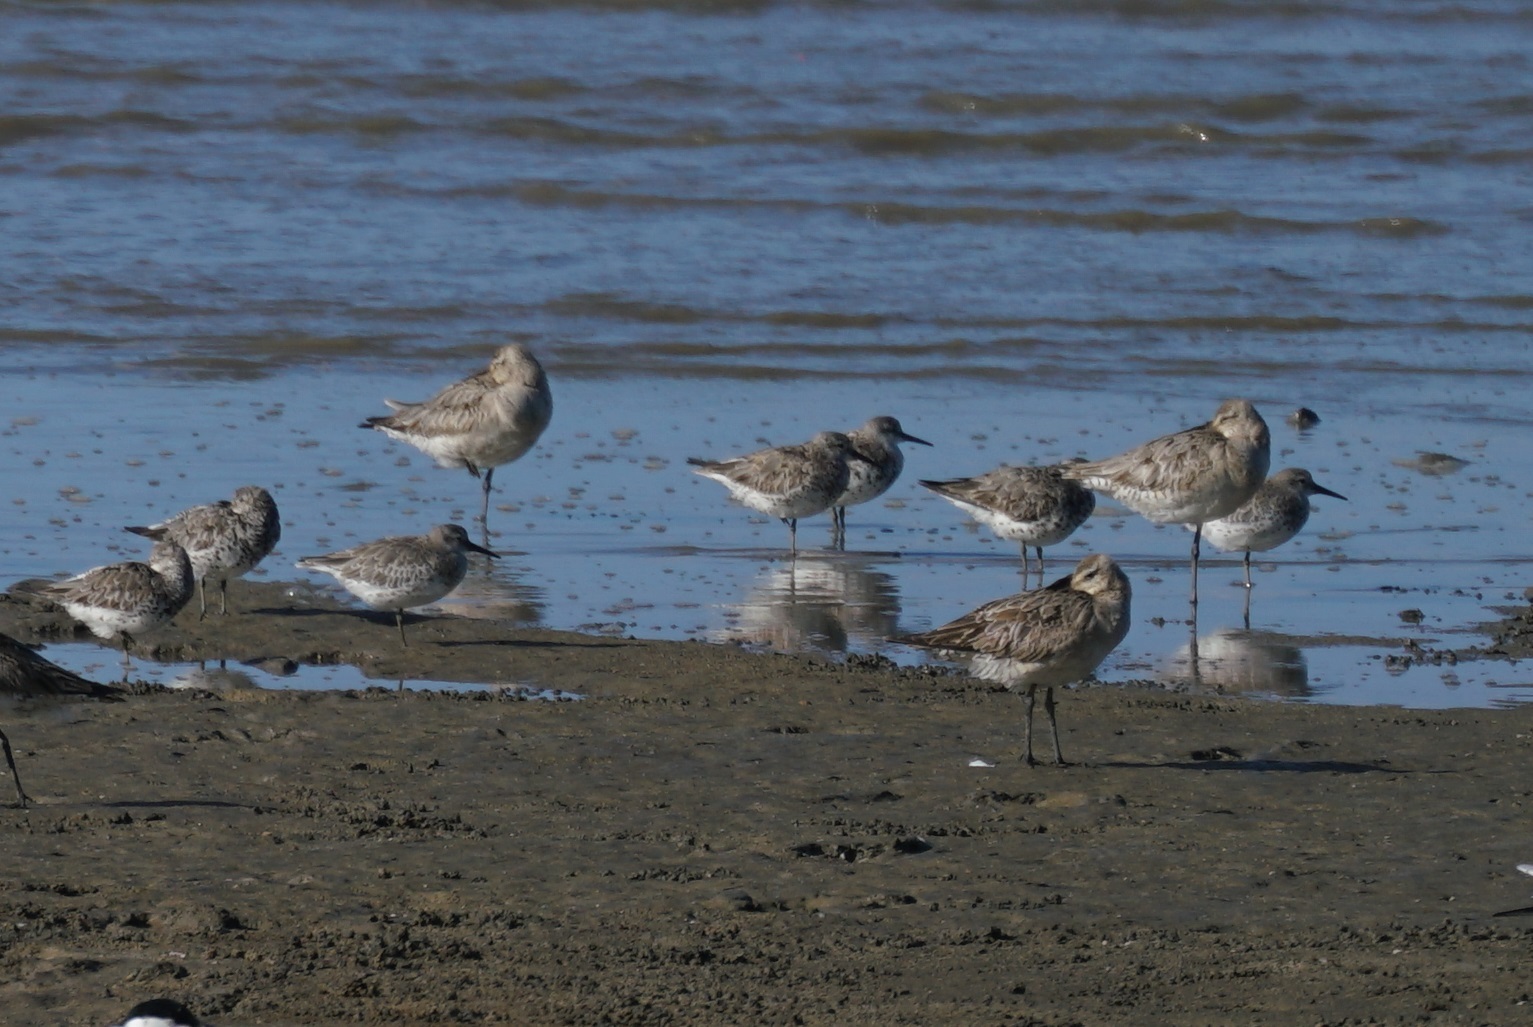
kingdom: Animalia
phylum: Chordata
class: Aves
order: Charadriiformes
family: Scolopacidae
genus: Calidris
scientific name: Calidris tenuirostris
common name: Great knot
